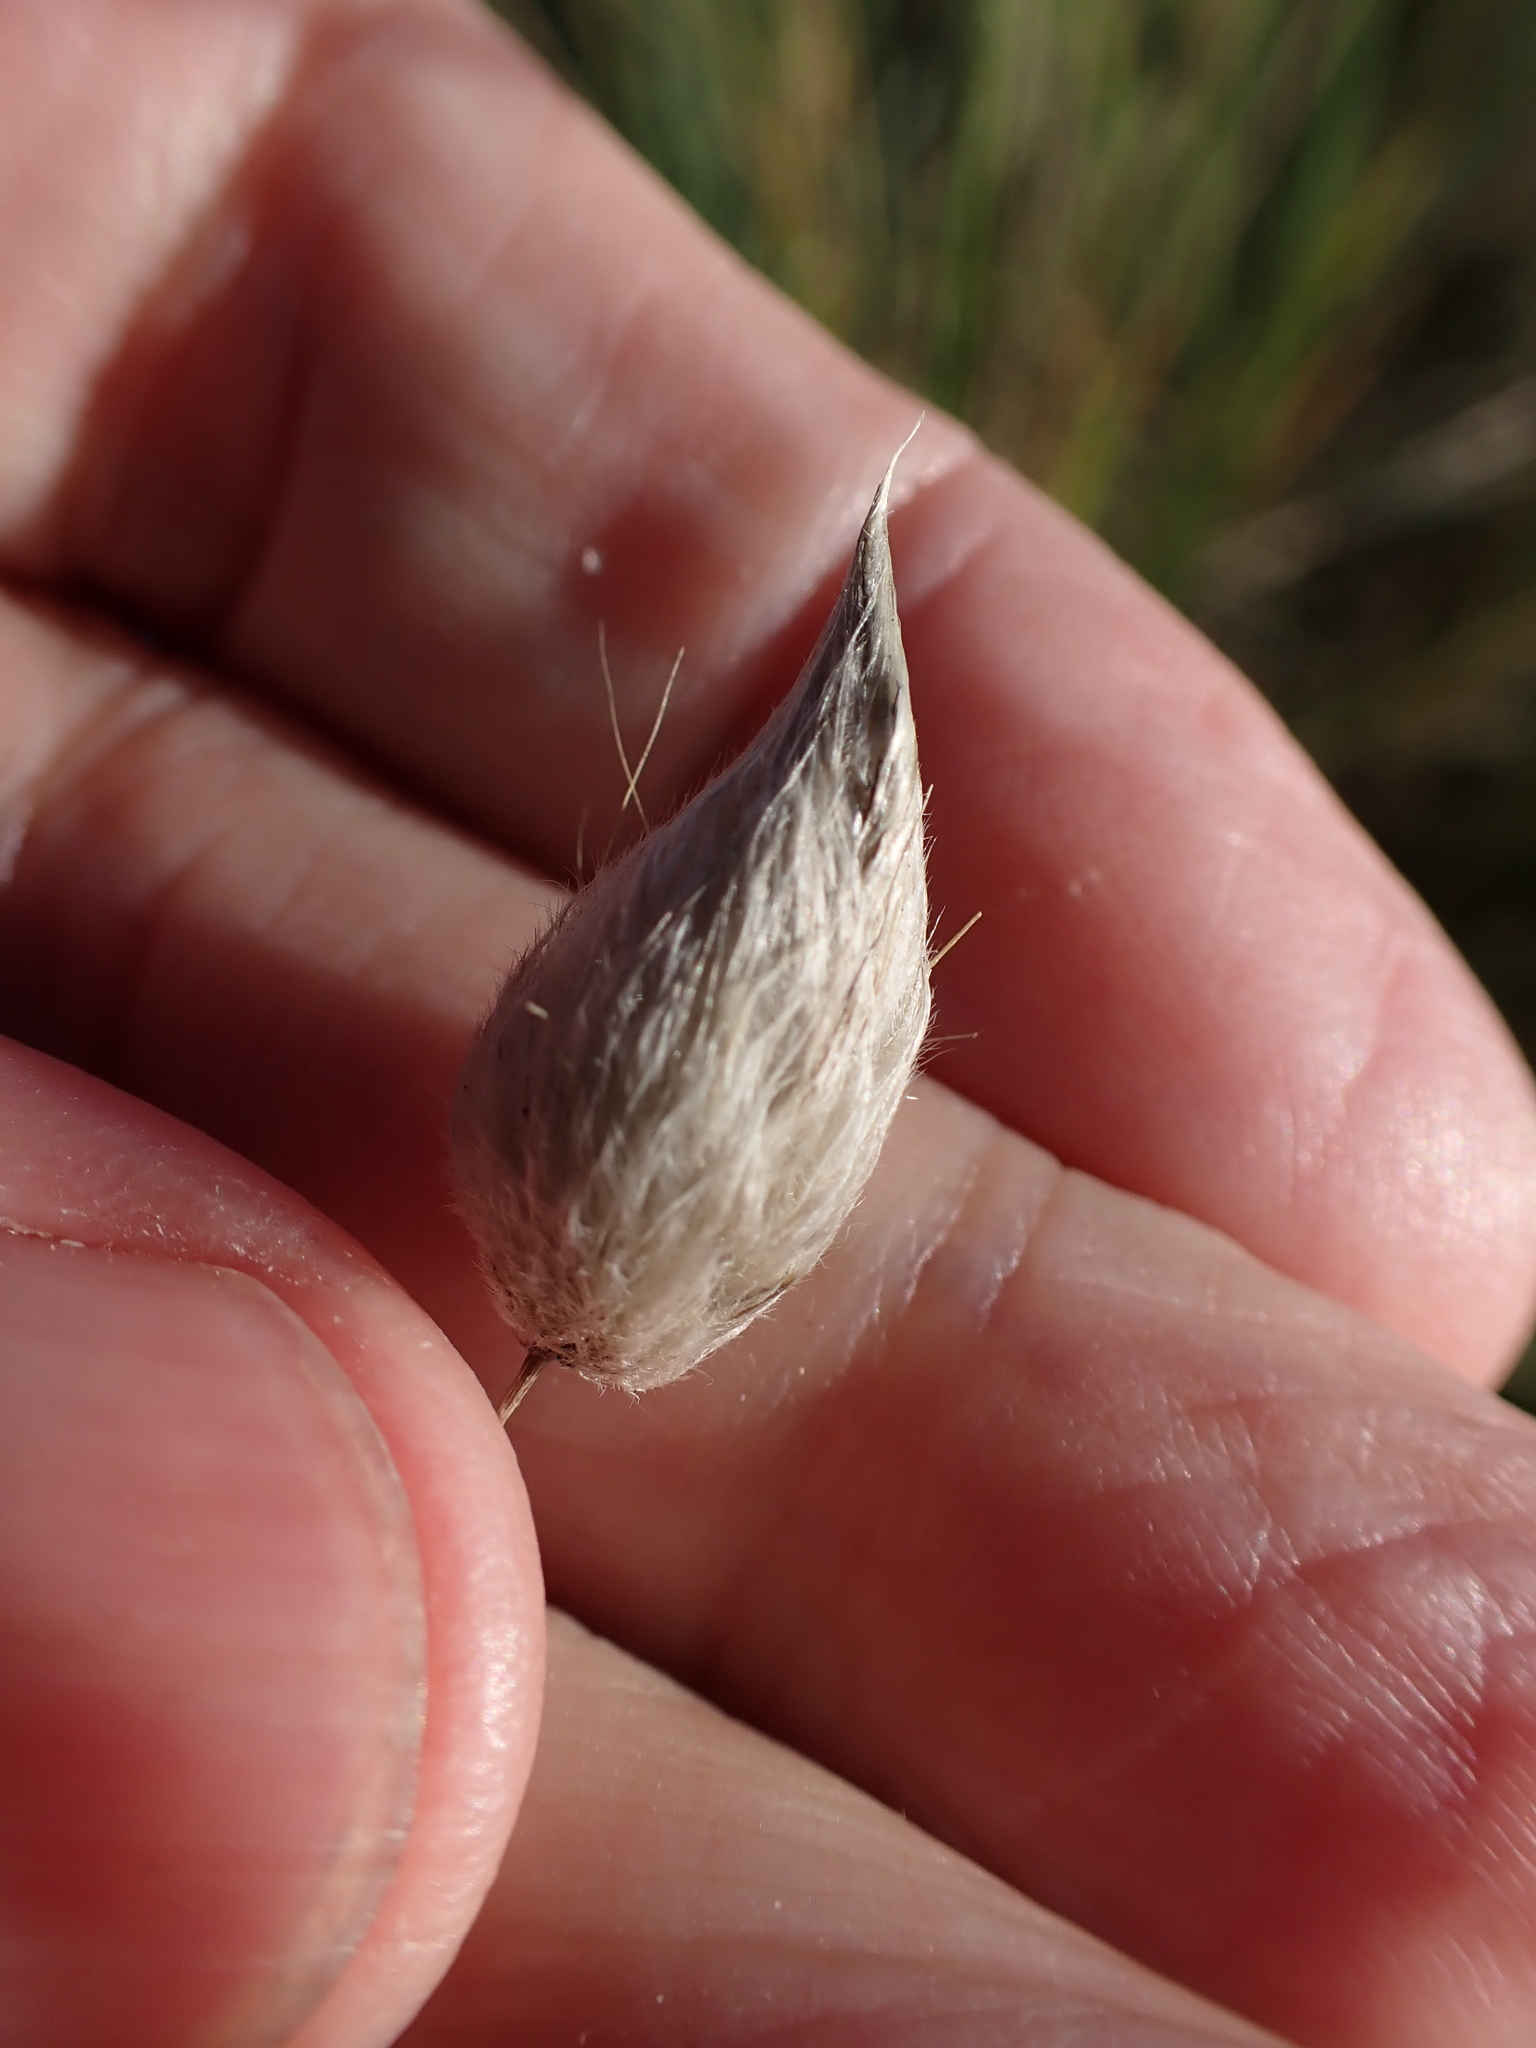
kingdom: Plantae
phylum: Tracheophyta
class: Liliopsida
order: Poales
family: Poaceae
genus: Lagurus
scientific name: Lagurus ovatus
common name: Hare's-tail
